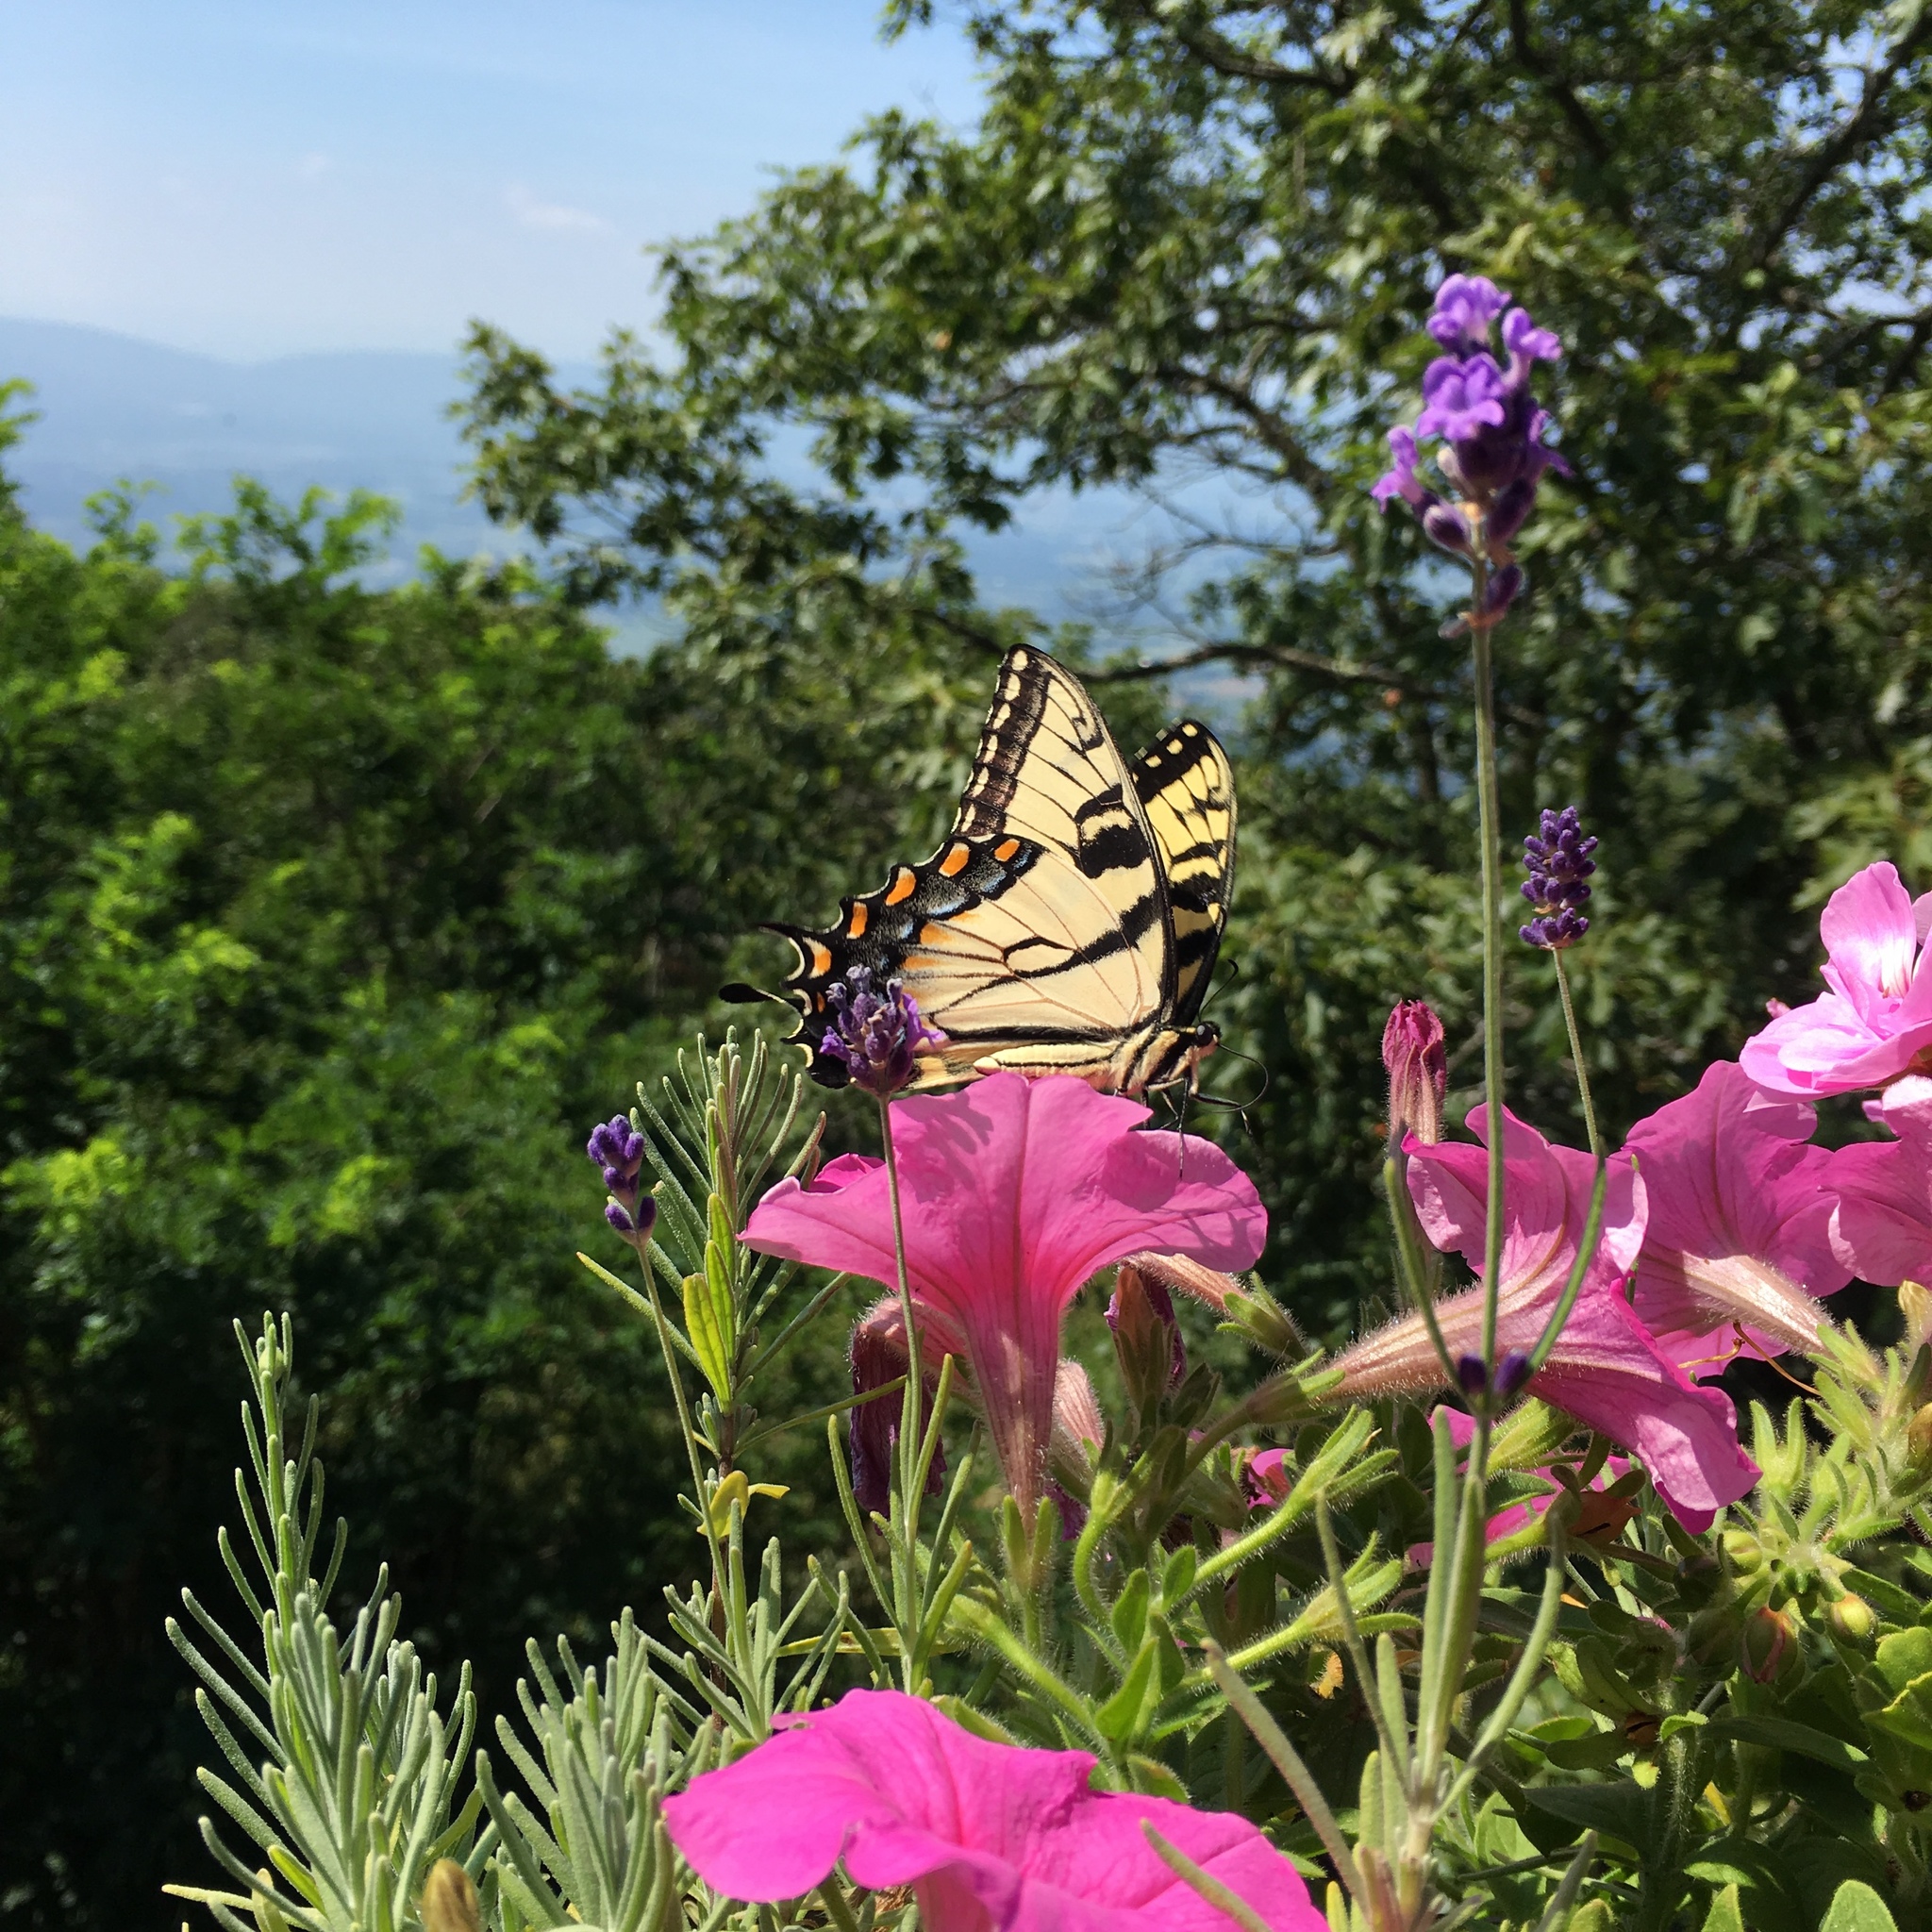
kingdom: Animalia
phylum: Arthropoda
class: Insecta
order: Lepidoptera
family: Papilionidae
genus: Papilio
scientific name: Papilio glaucus
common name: Tiger swallowtail
